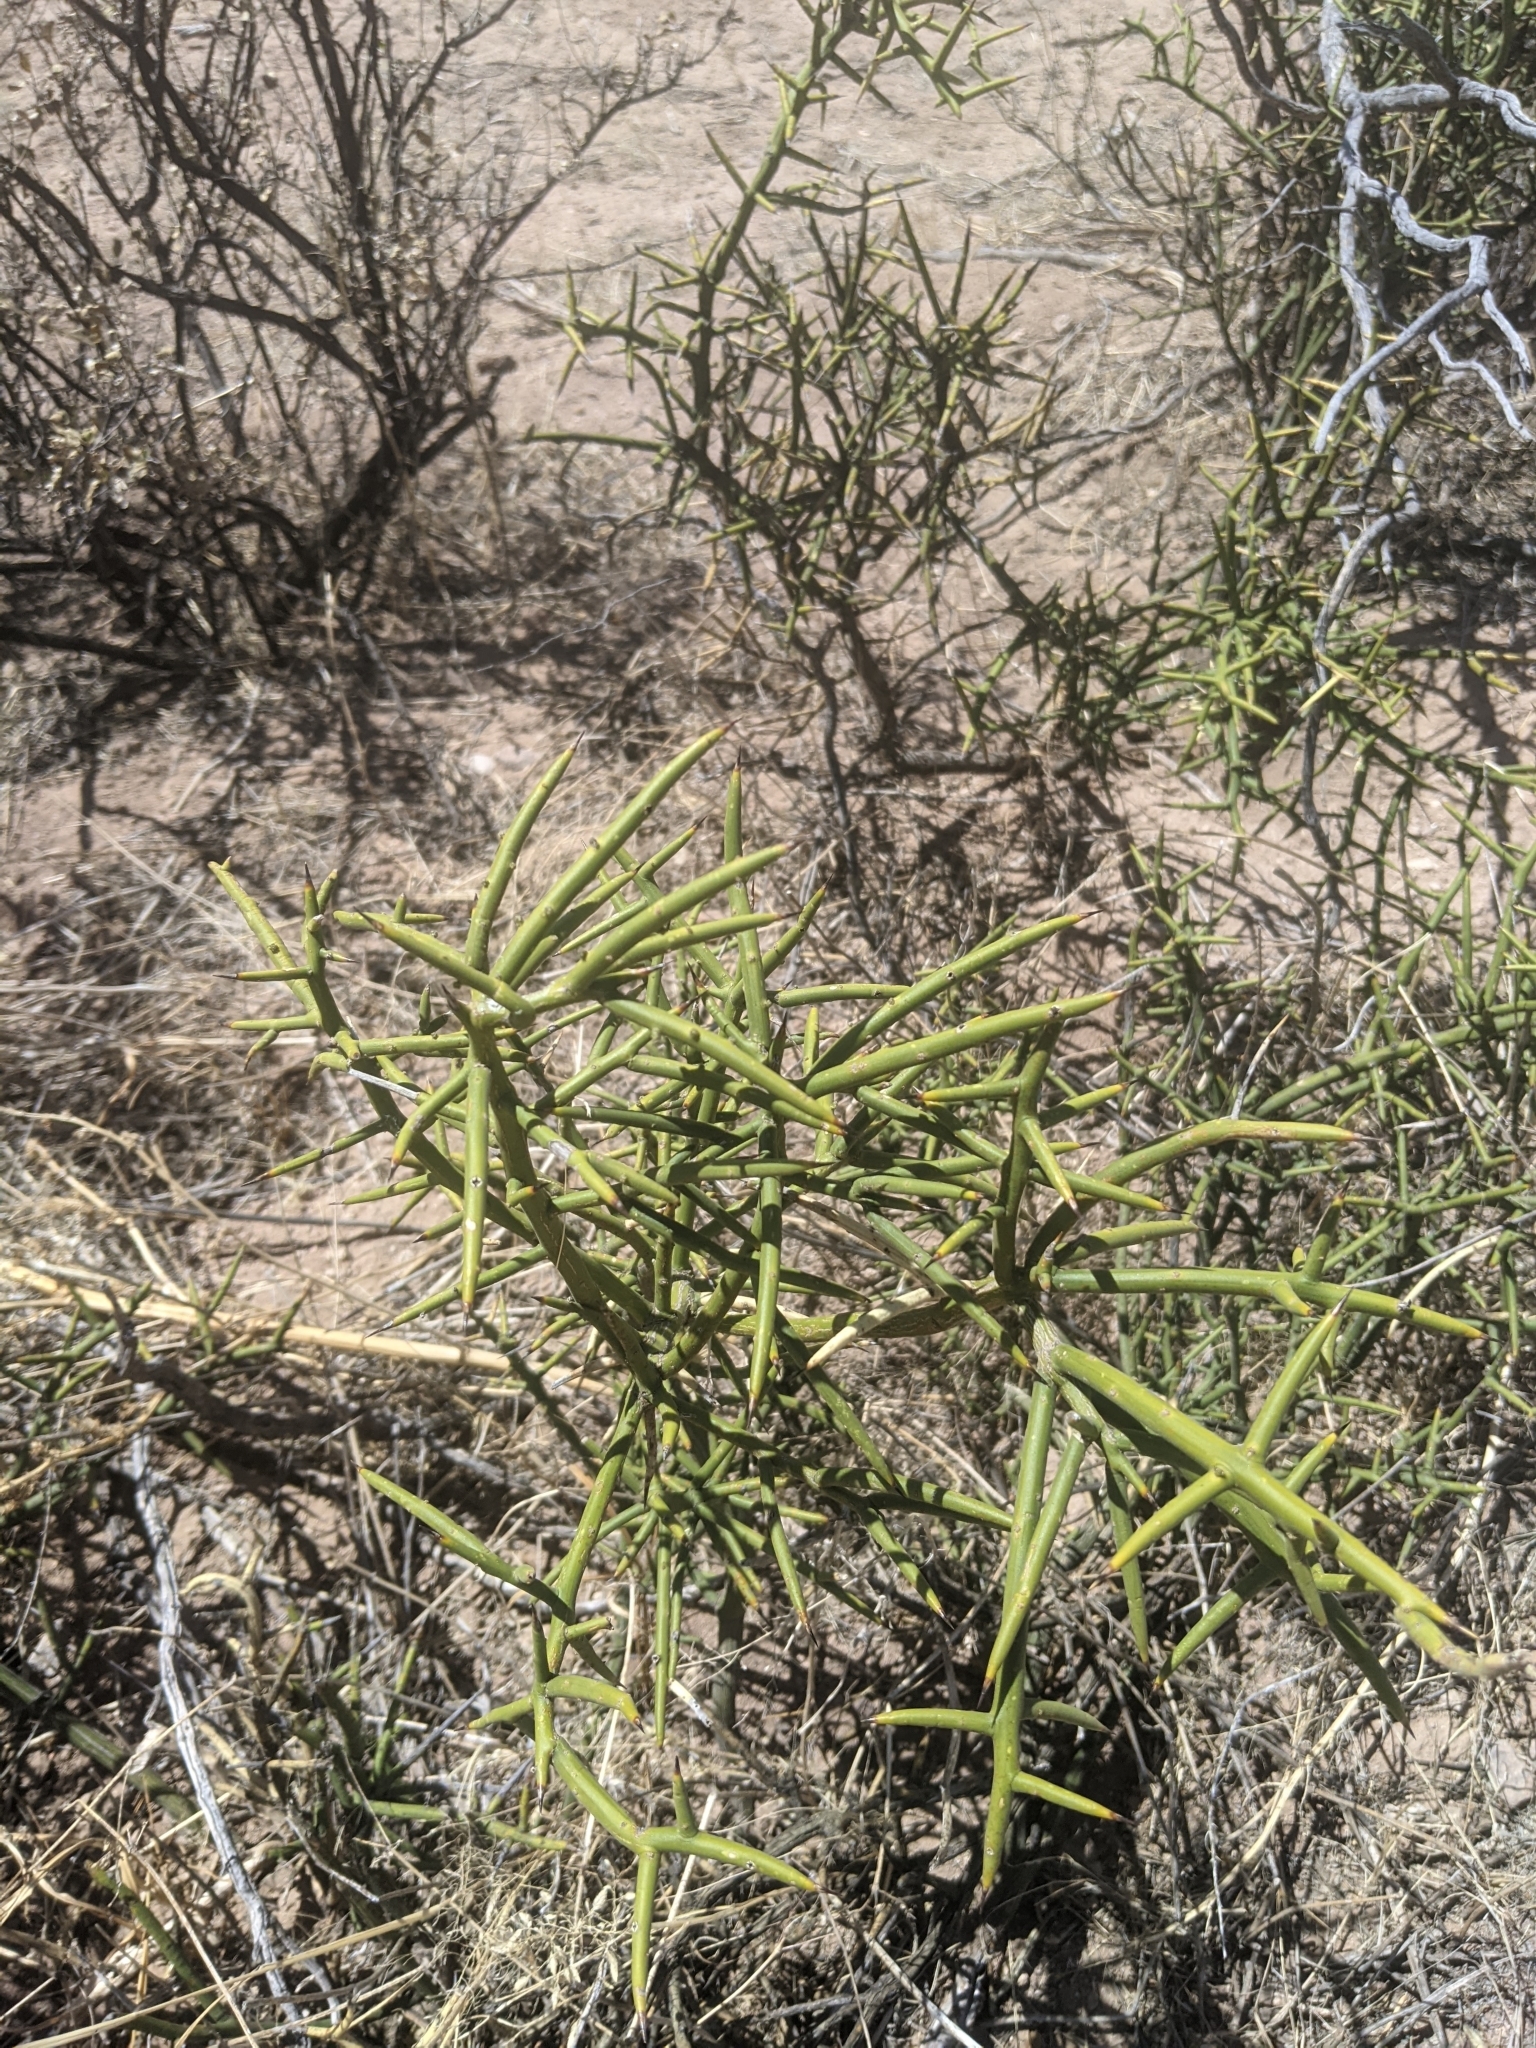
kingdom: Plantae
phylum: Tracheophyta
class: Magnoliopsida
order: Brassicales
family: Koeberliniaceae
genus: Koeberlinia
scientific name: Koeberlinia spinosa
